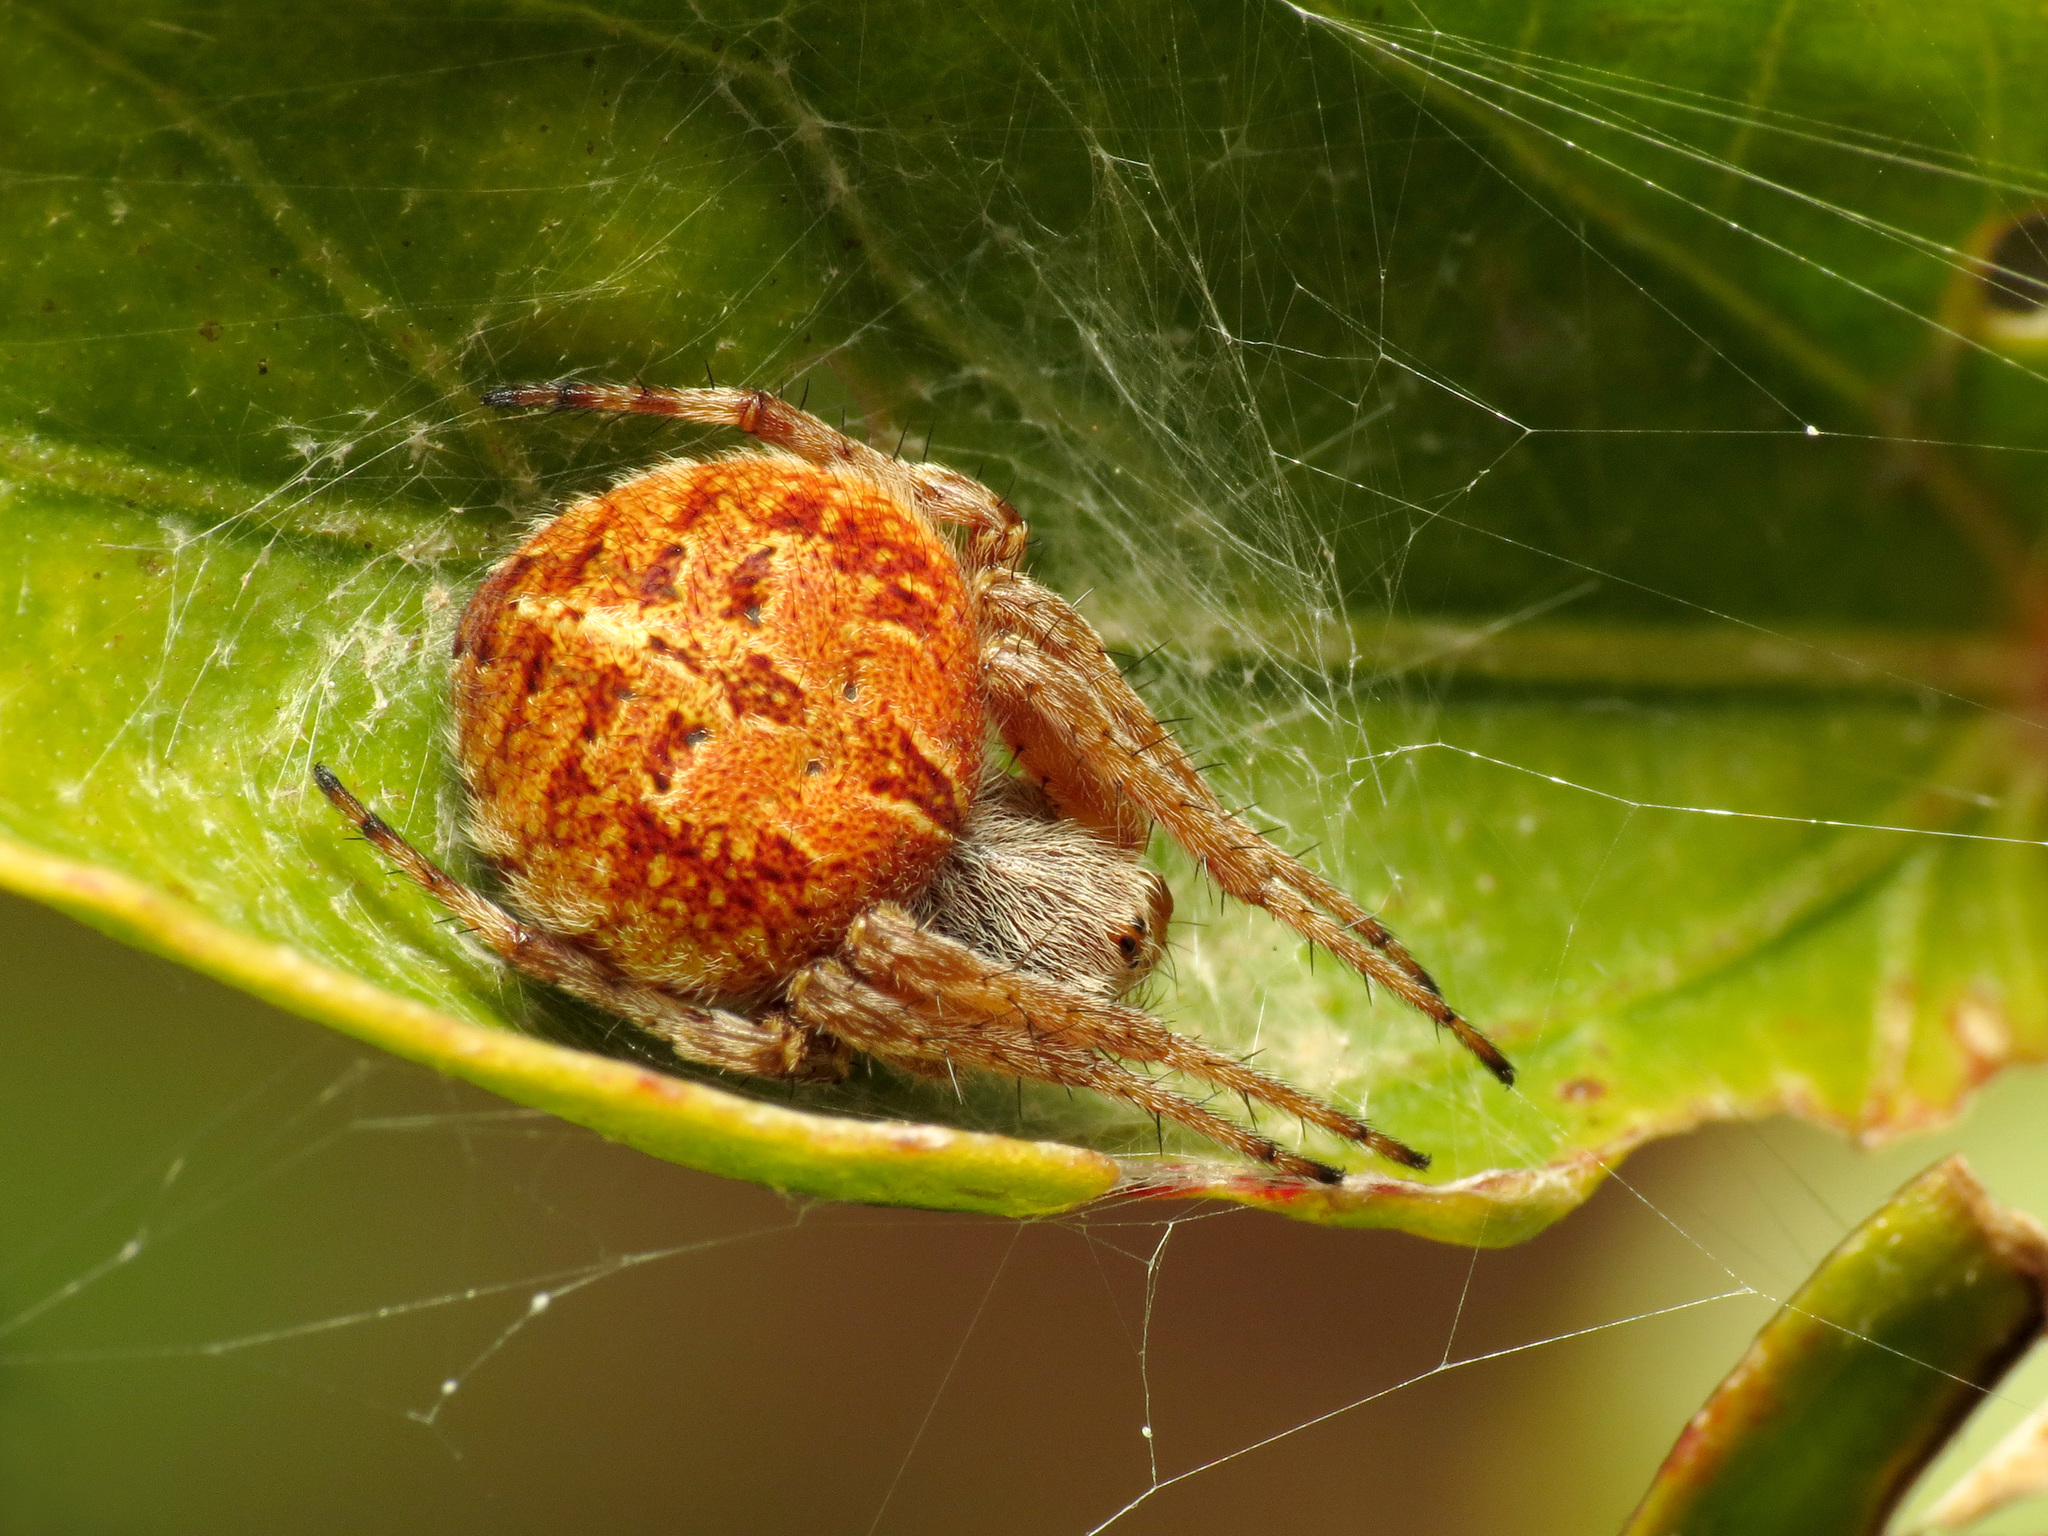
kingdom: Animalia
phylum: Arthropoda
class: Arachnida
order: Araneae
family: Araneidae
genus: Agalenatea
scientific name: Agalenatea redii
